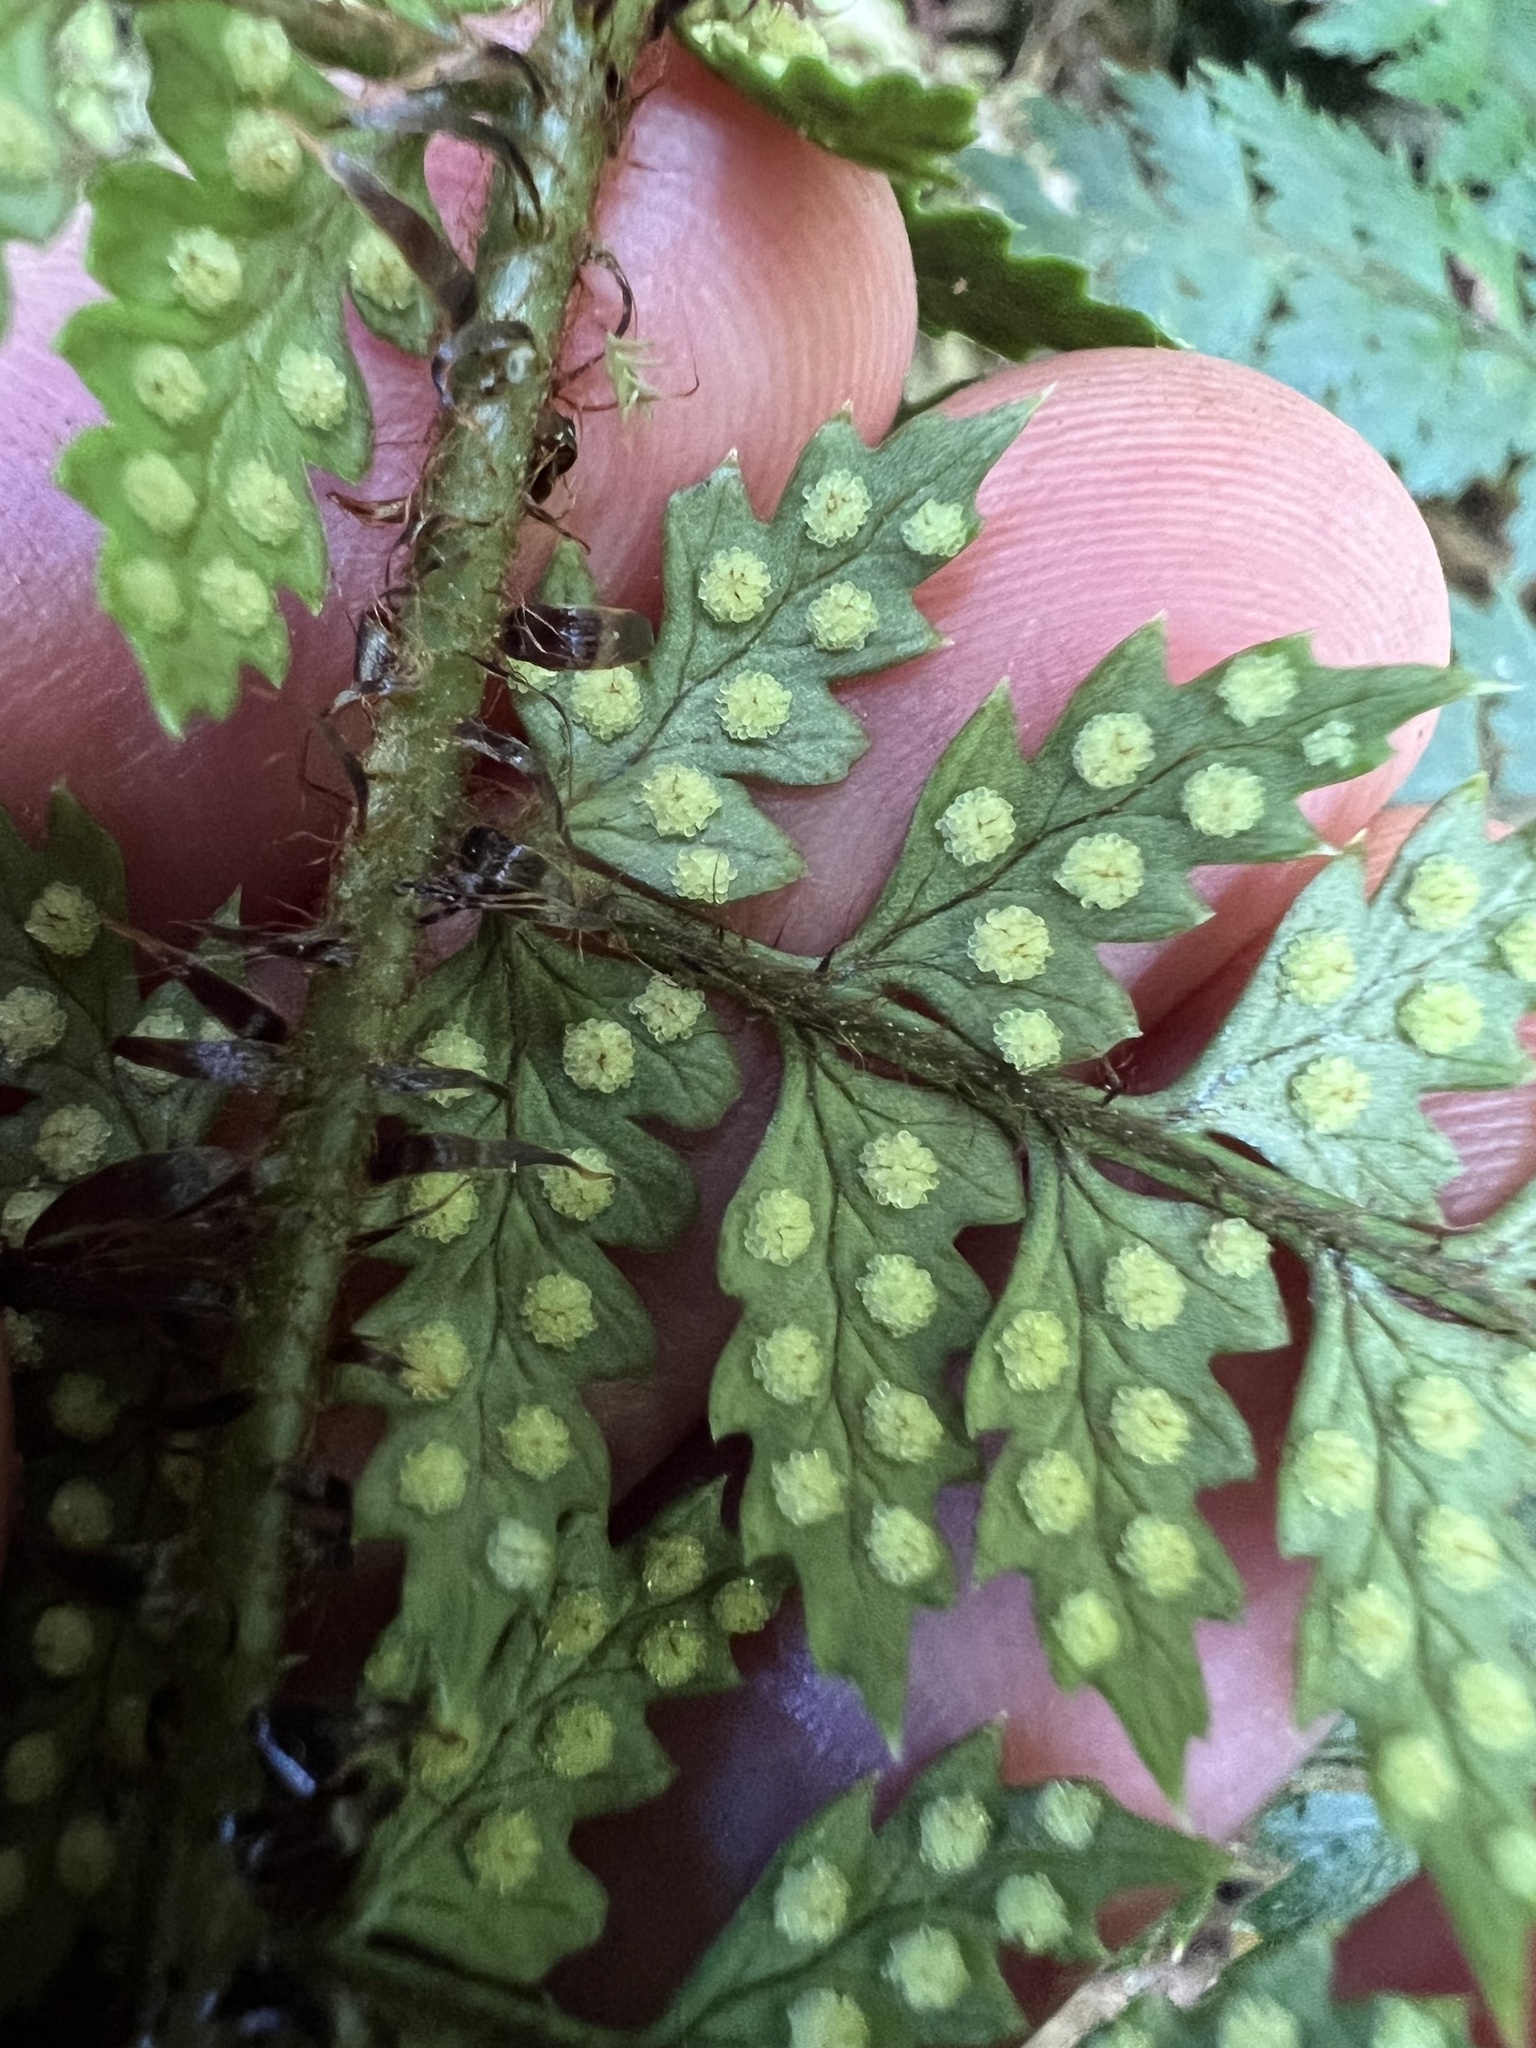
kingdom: Plantae
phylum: Tracheophyta
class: Polypodiopsida
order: Polypodiales
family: Dryopteridaceae
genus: Polystichum
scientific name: Polystichum silvaticum
